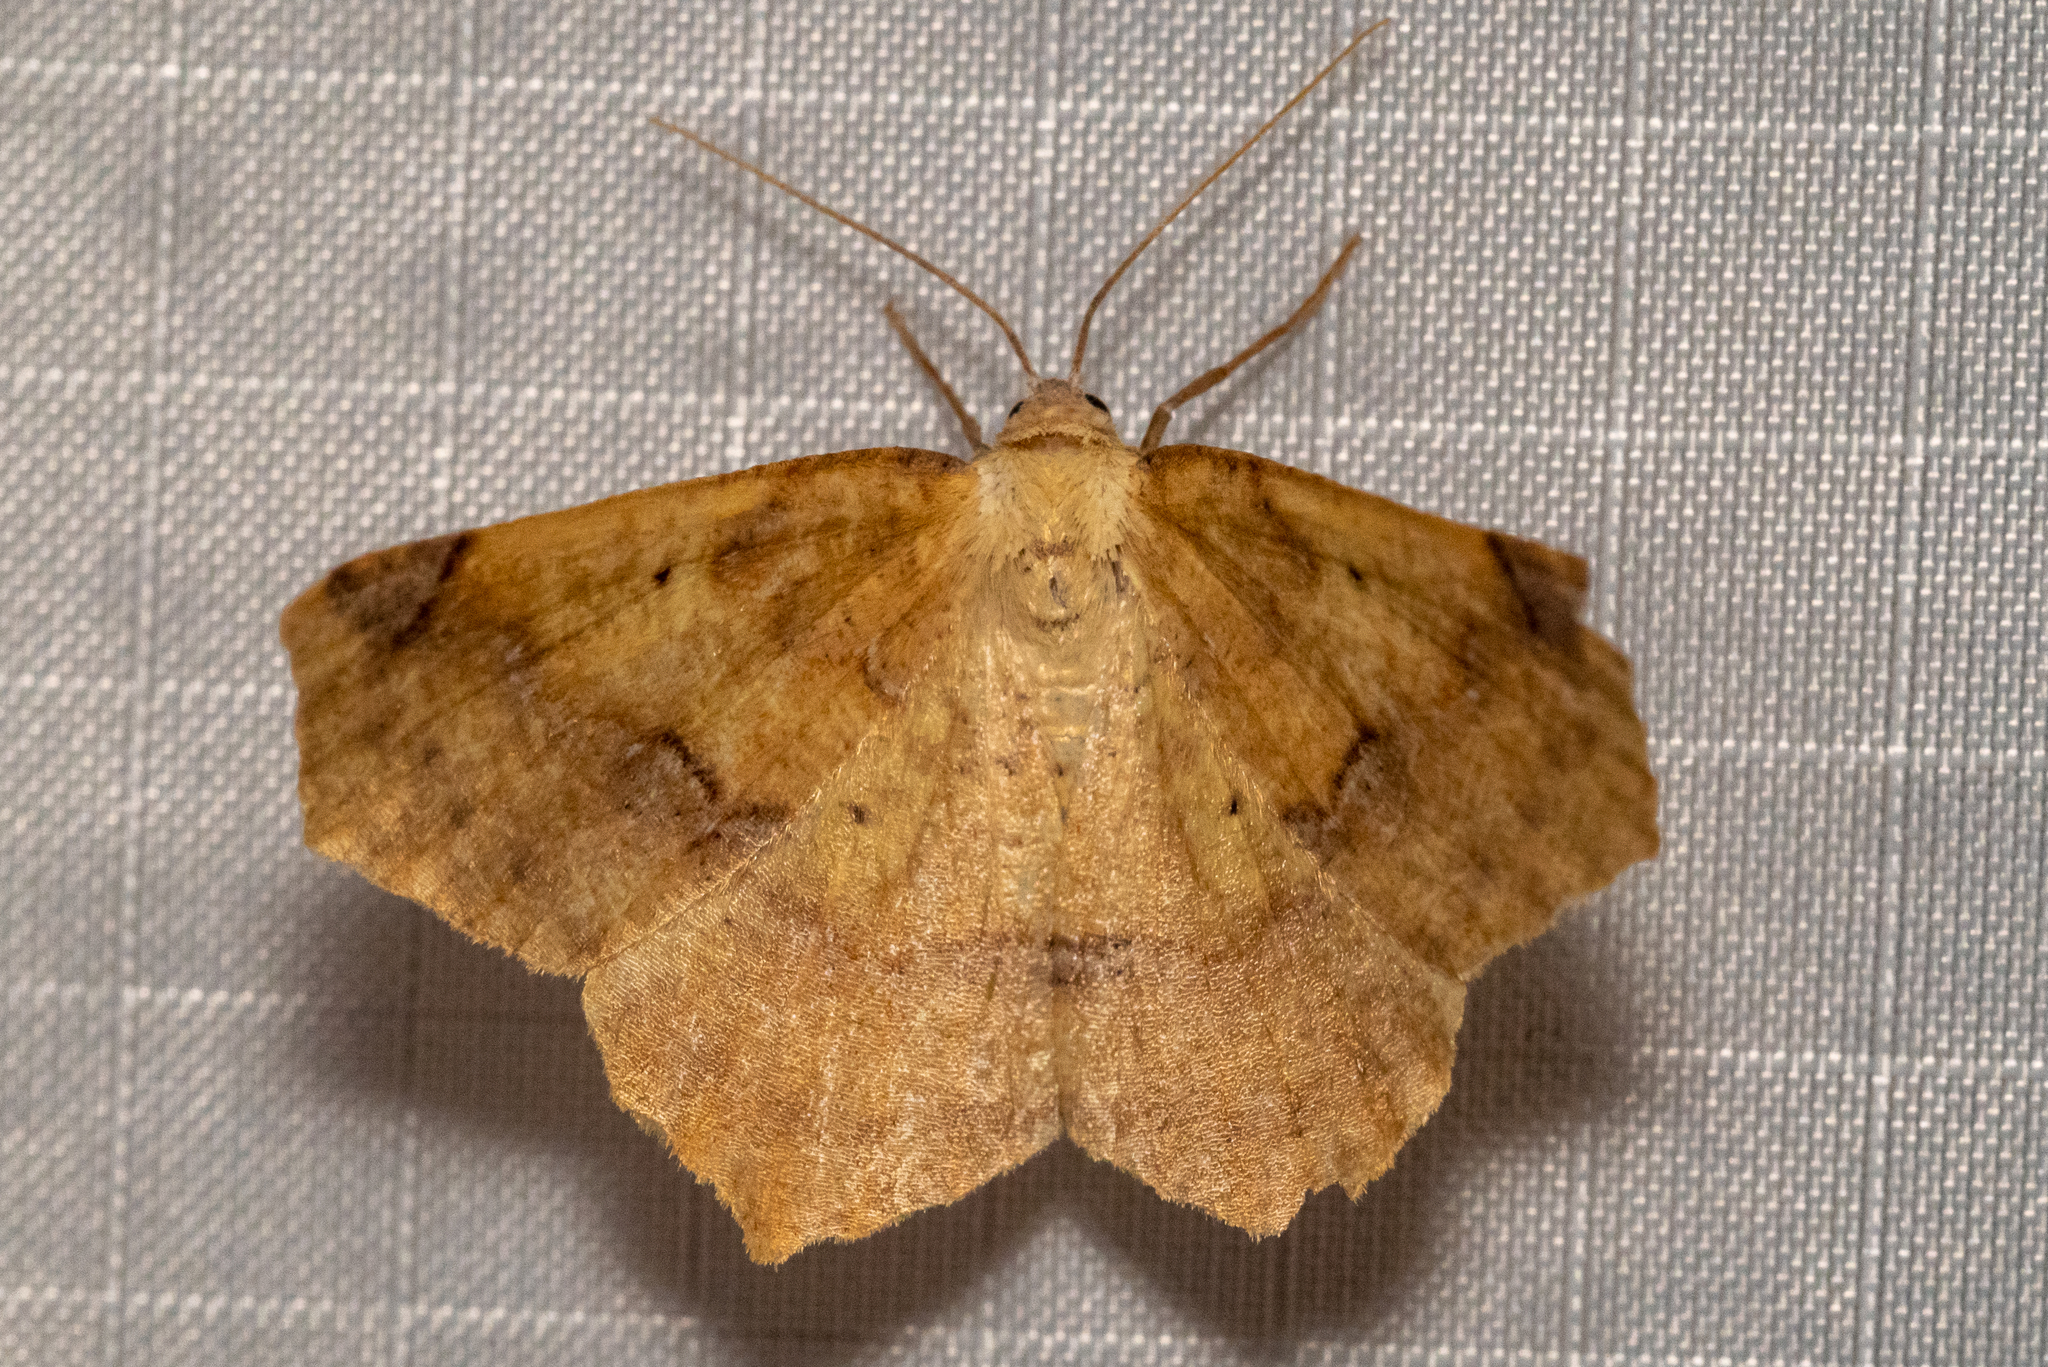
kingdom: Animalia
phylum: Arthropoda
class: Insecta
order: Lepidoptera
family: Geometridae
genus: Antepione
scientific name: Antepione thisoaria
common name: Variable antipione
